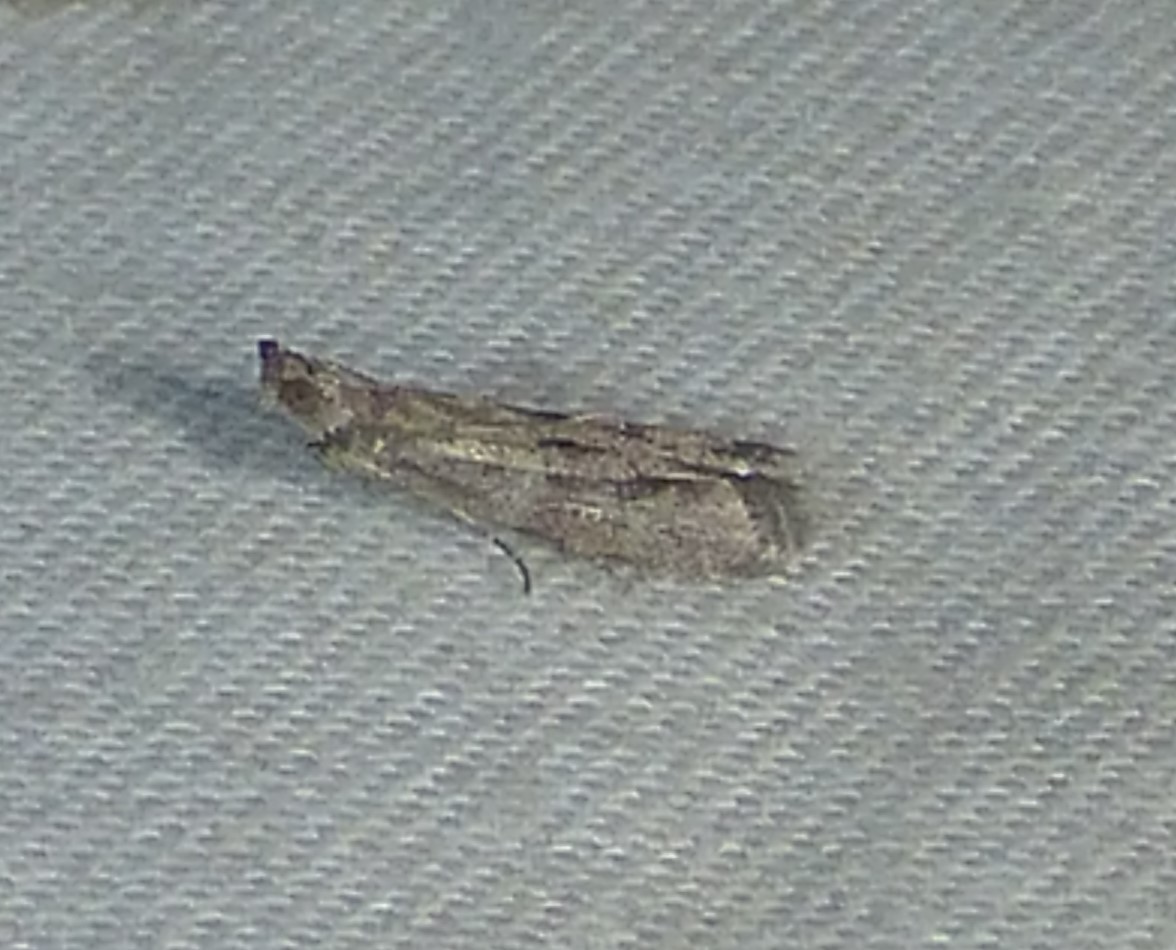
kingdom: Animalia
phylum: Arthropoda
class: Insecta
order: Lepidoptera
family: Gelechiidae
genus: Dichomeris
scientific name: Dichomeris inversella
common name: Inverse dichomeris moth
